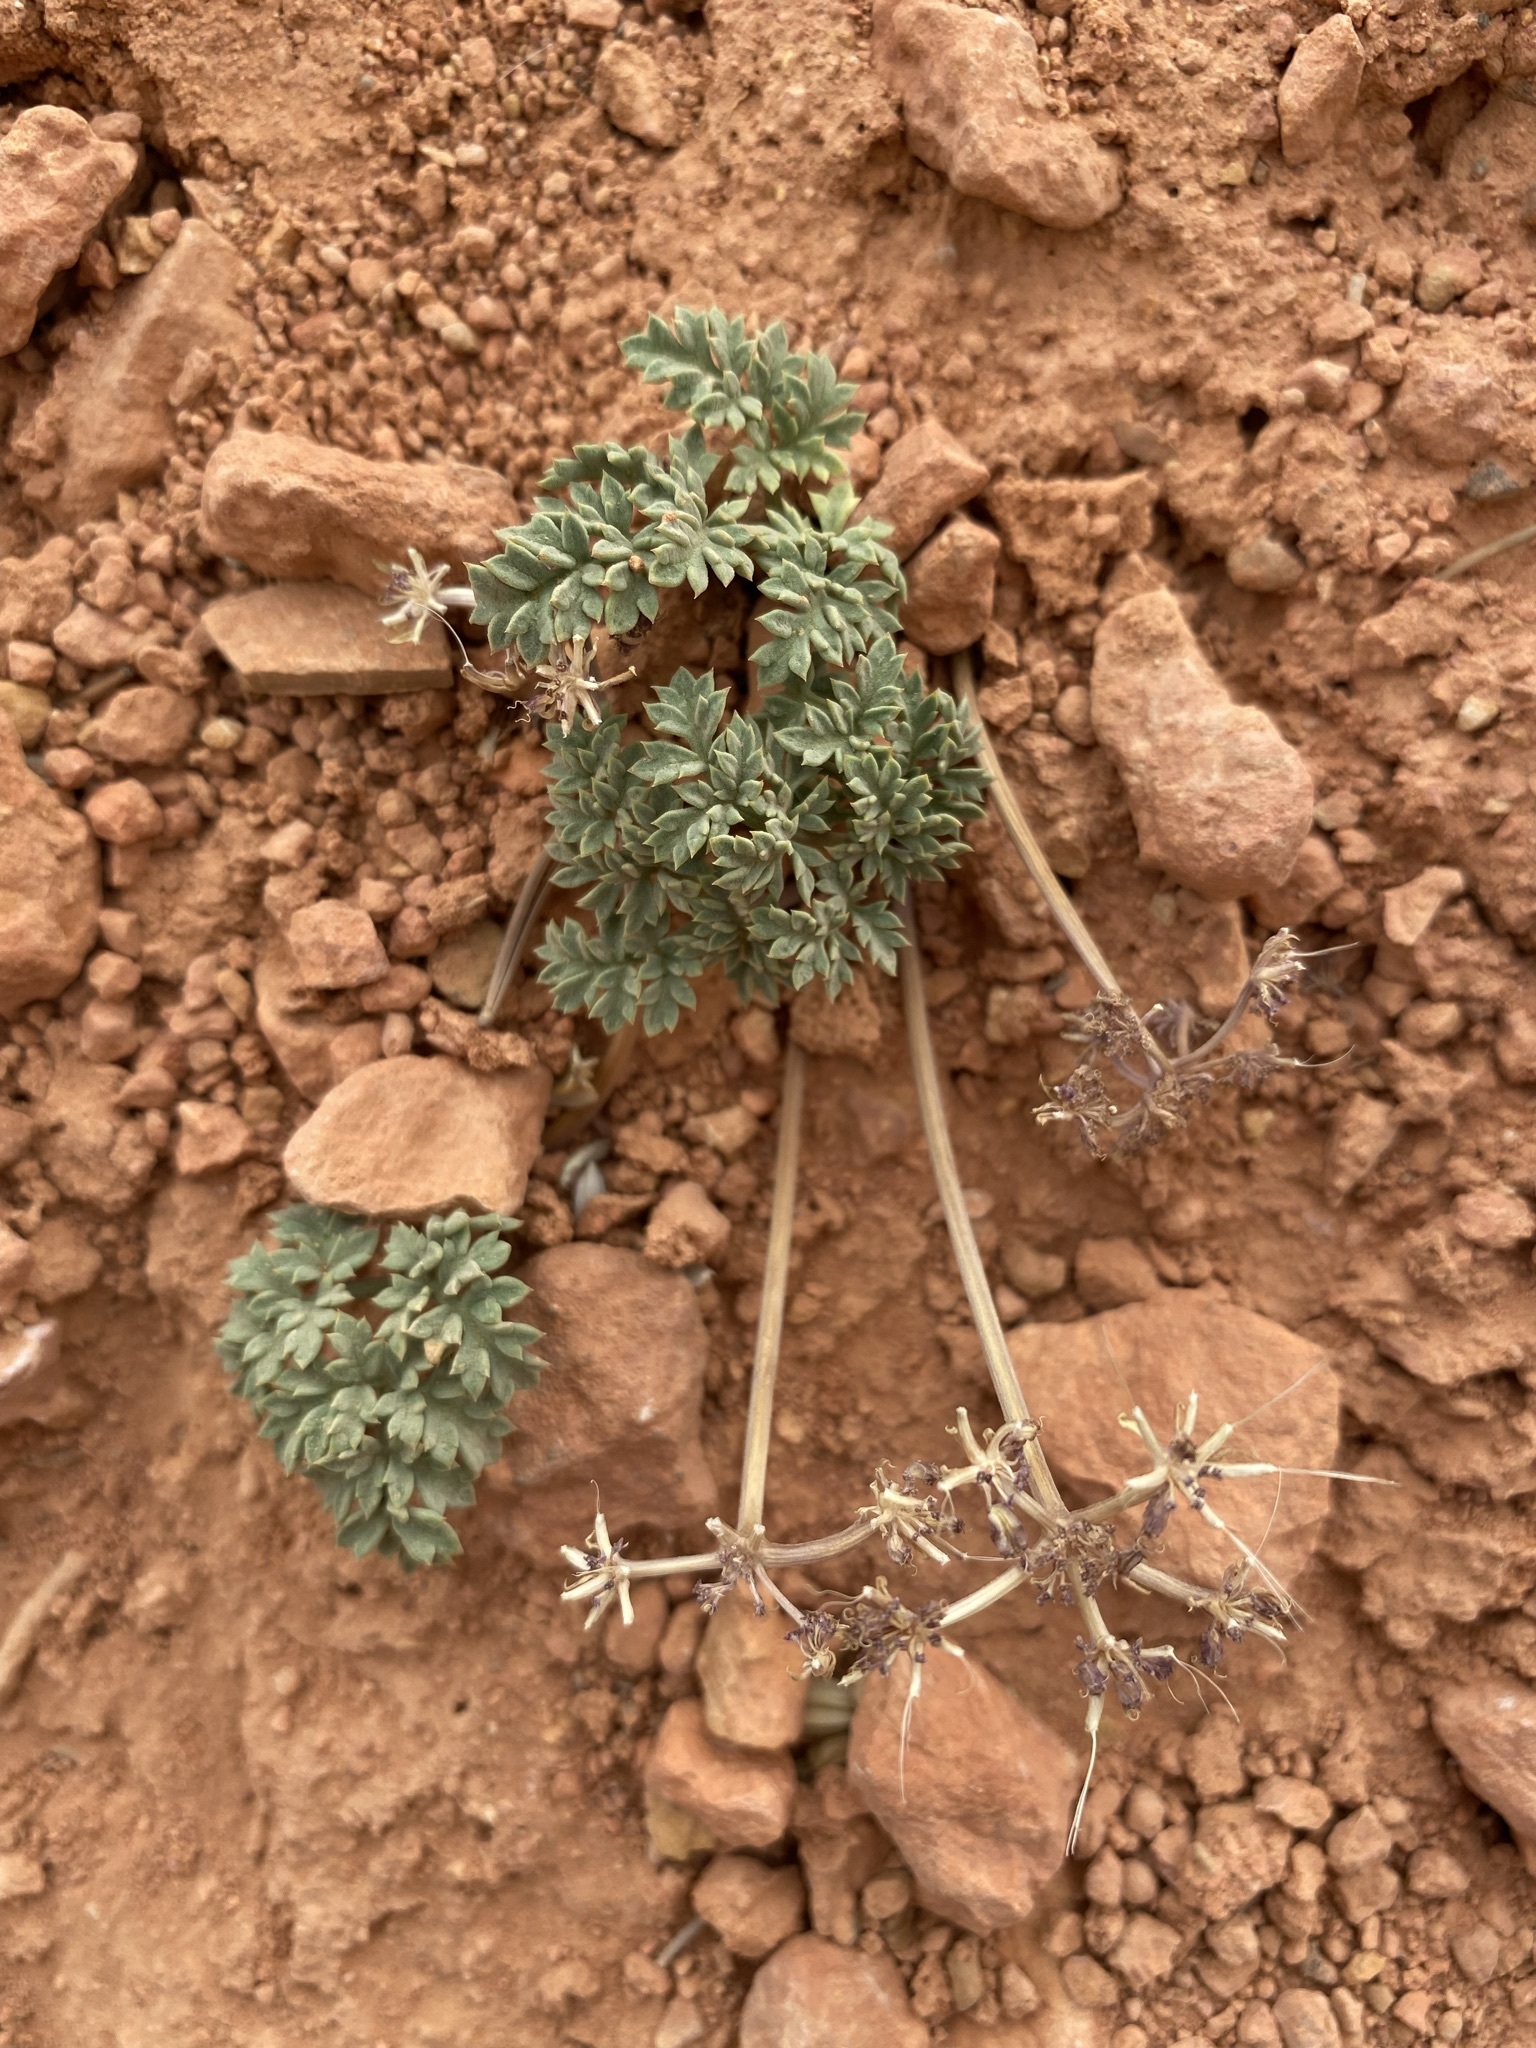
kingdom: Plantae
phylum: Tracheophyta
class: Magnoliopsida
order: Apiales
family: Apiaceae
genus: Cymopterus
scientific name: Cymopterus rosei
